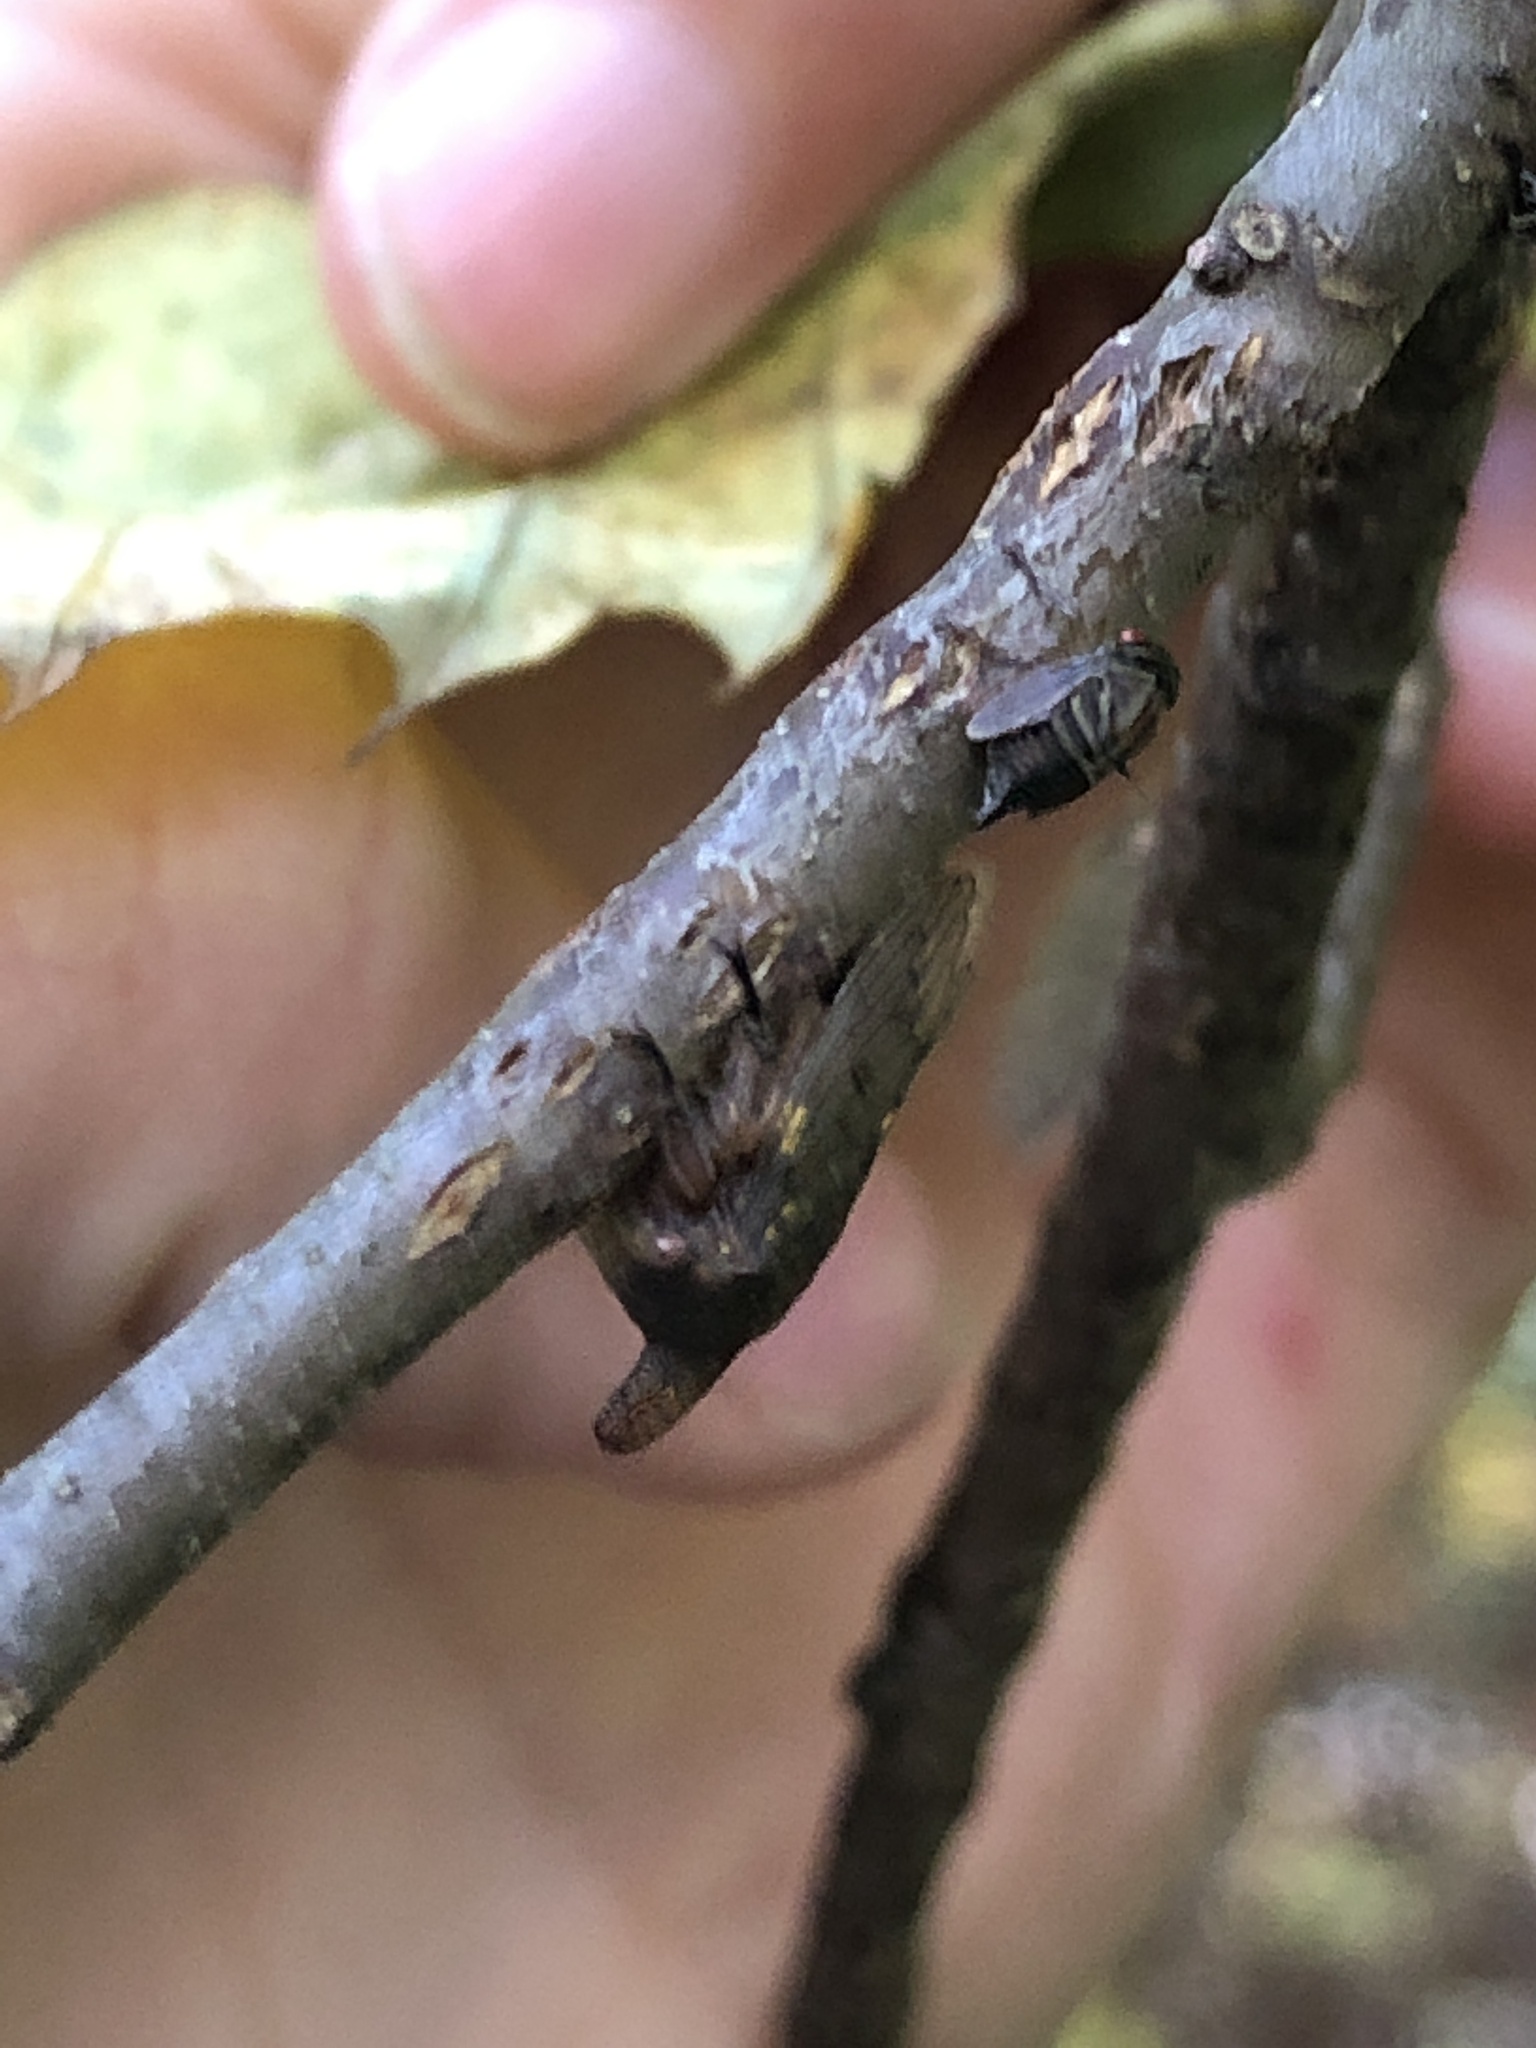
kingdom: Animalia
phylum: Arthropoda
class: Insecta
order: Hemiptera
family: Membracidae
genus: Platycotis
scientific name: Platycotis vittatus
